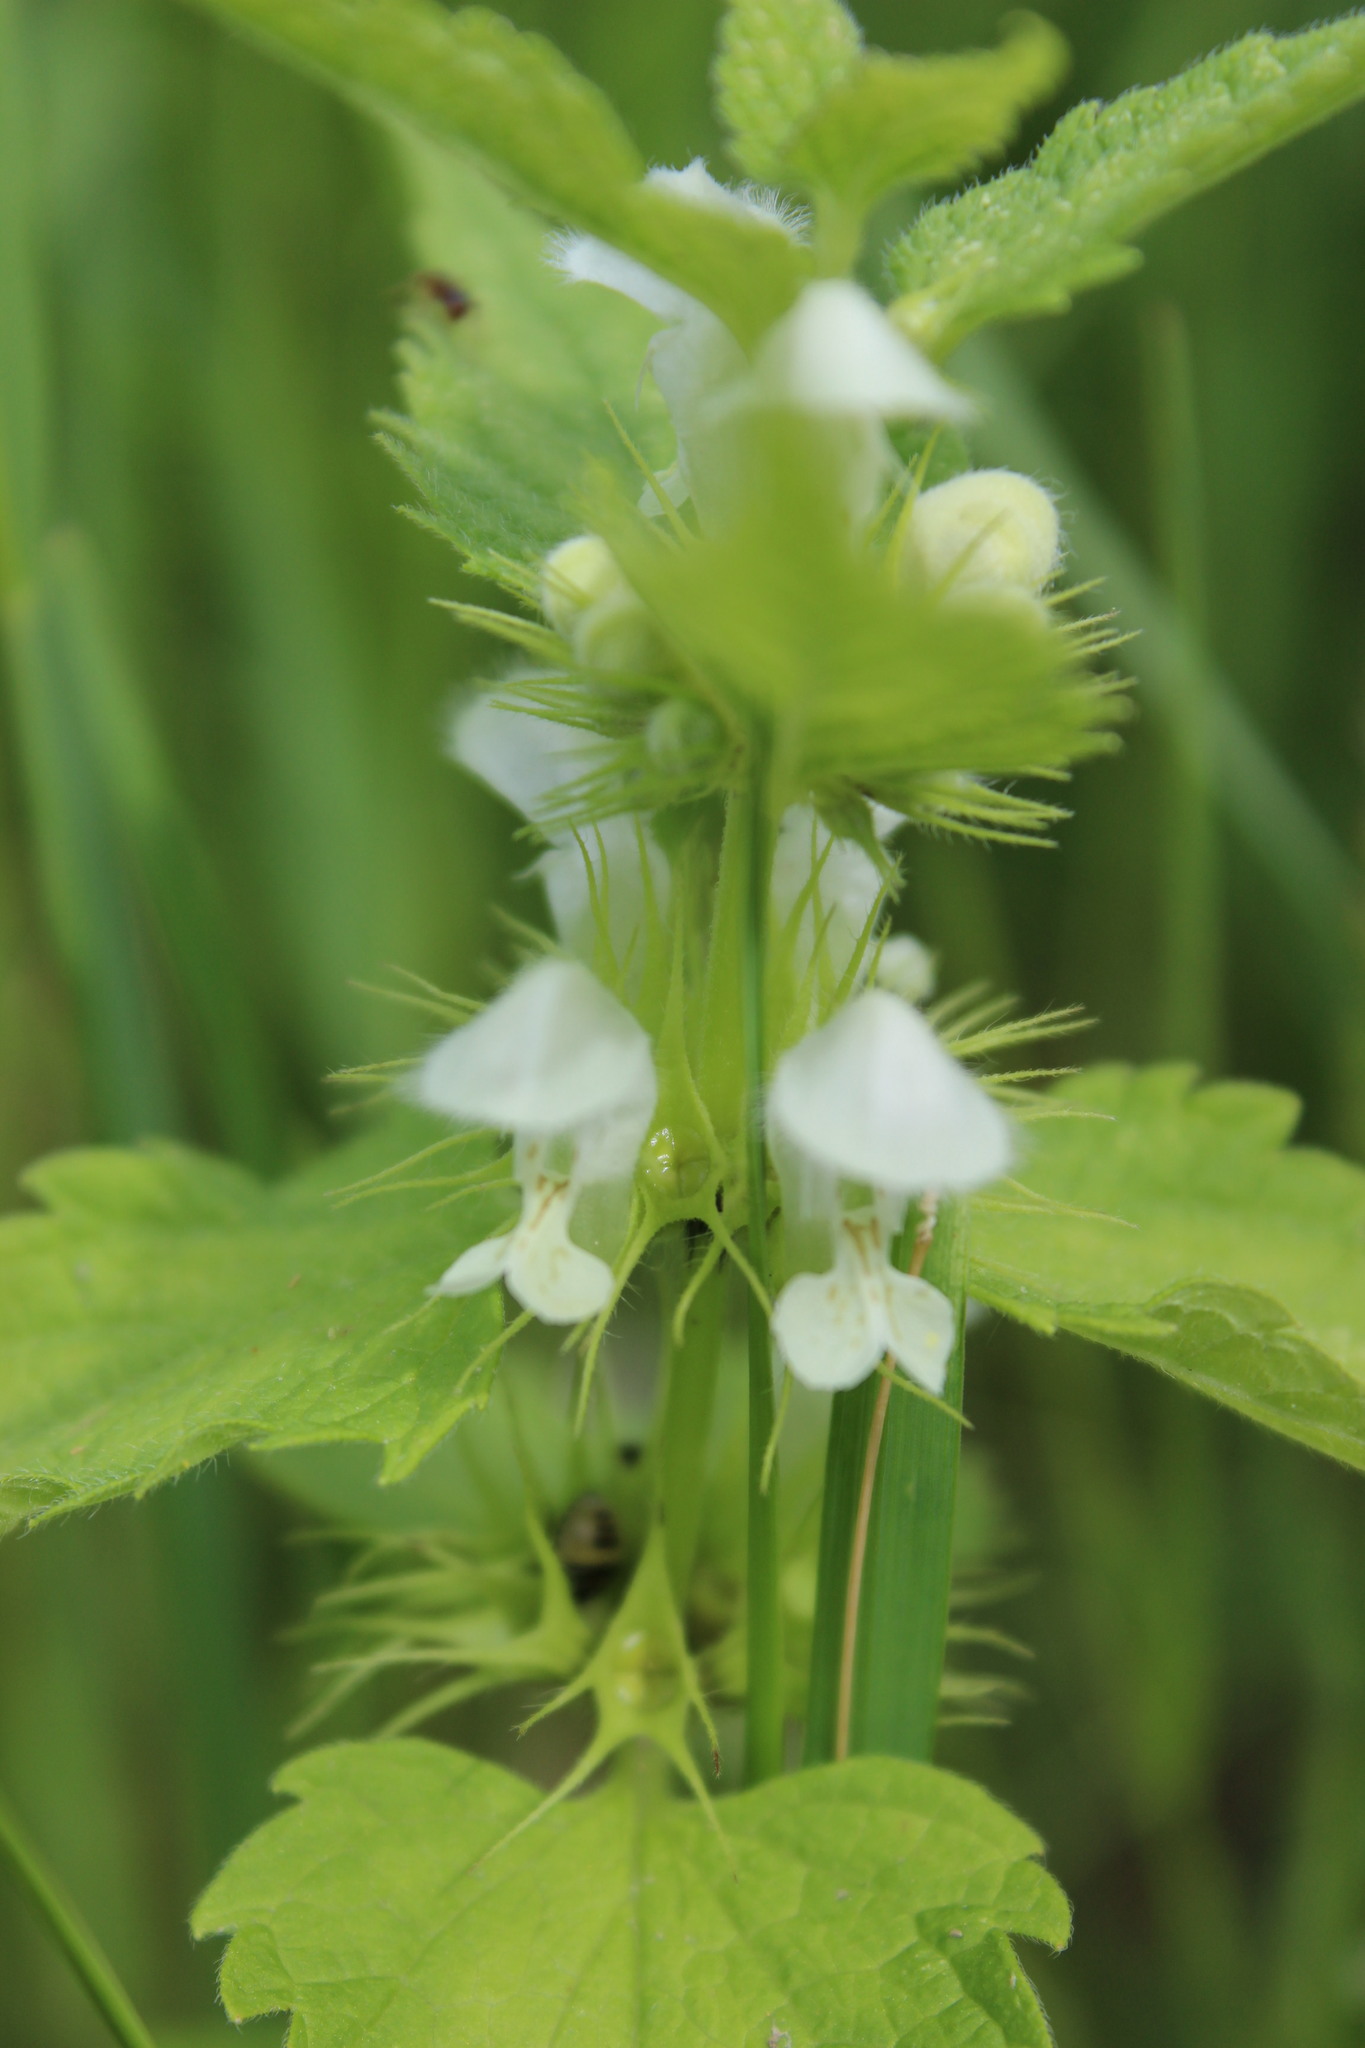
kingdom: Plantae
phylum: Tracheophyta
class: Magnoliopsida
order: Lamiales
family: Lamiaceae
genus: Lamium
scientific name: Lamium album
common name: White dead-nettle
